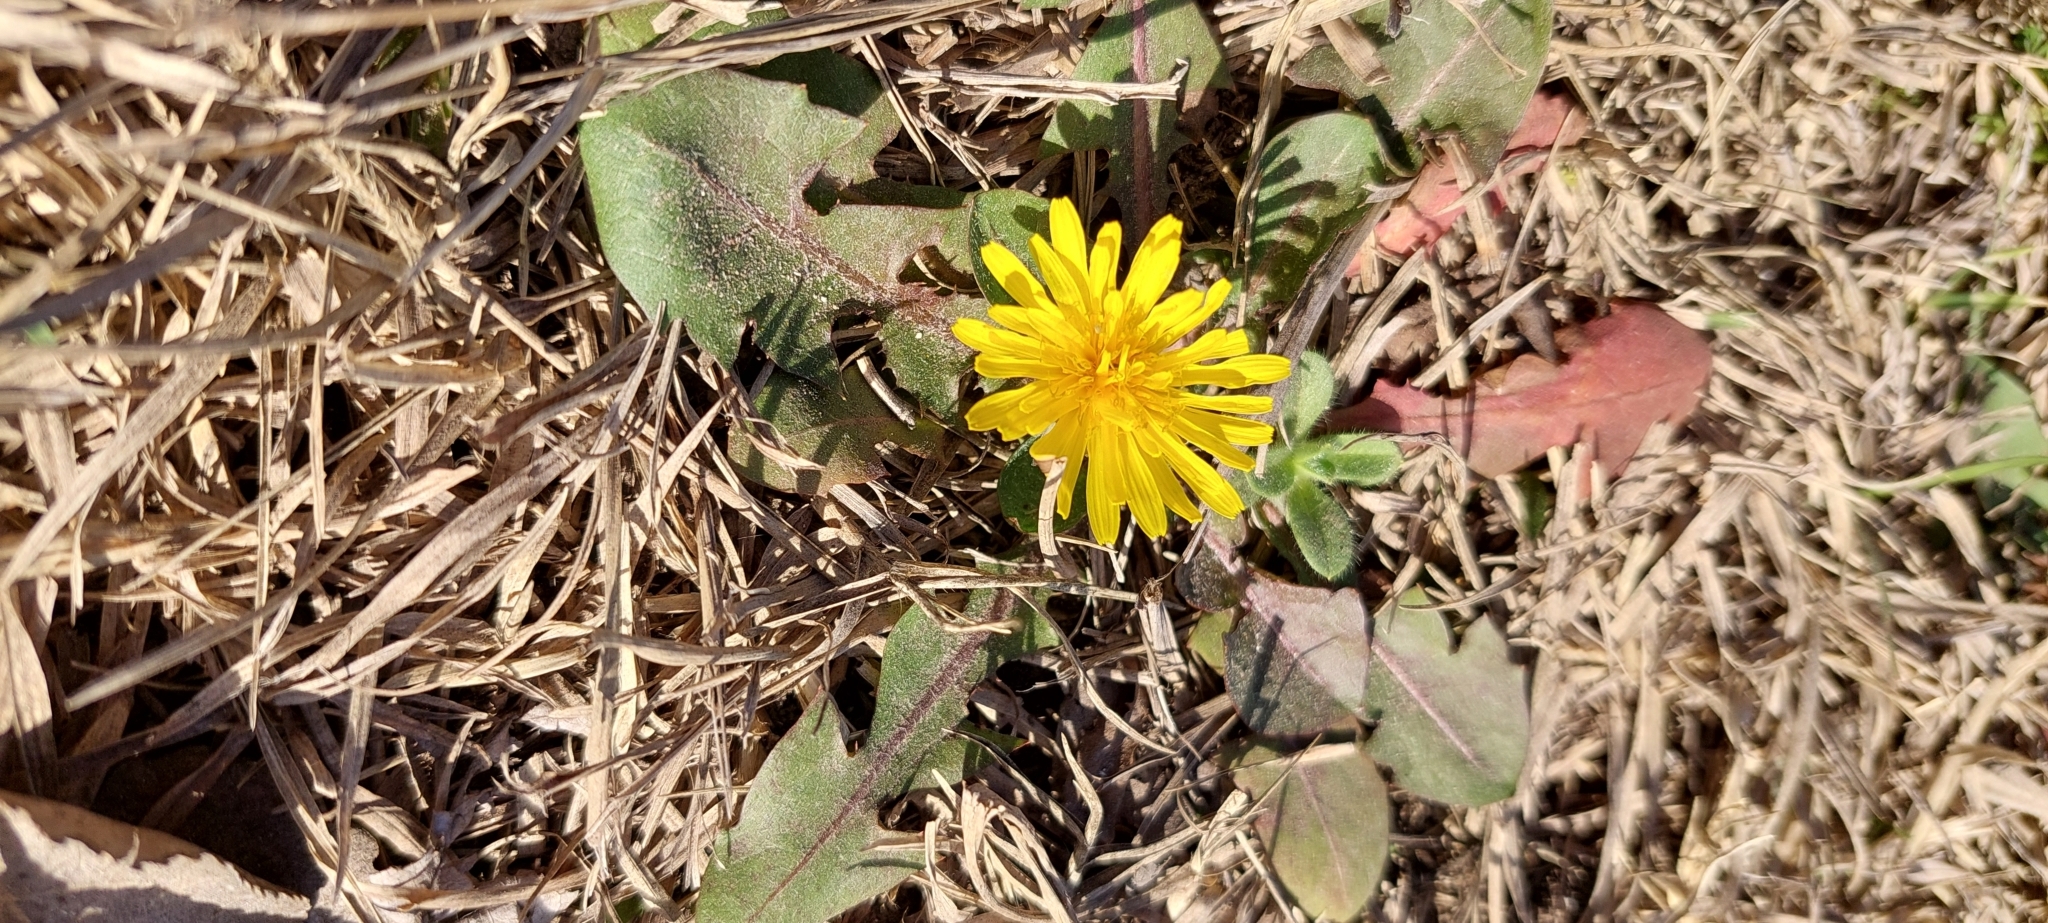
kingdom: Plantae
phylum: Tracheophyta
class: Magnoliopsida
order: Asterales
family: Asteraceae
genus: Taraxacum
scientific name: Taraxacum officinale
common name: Common dandelion
